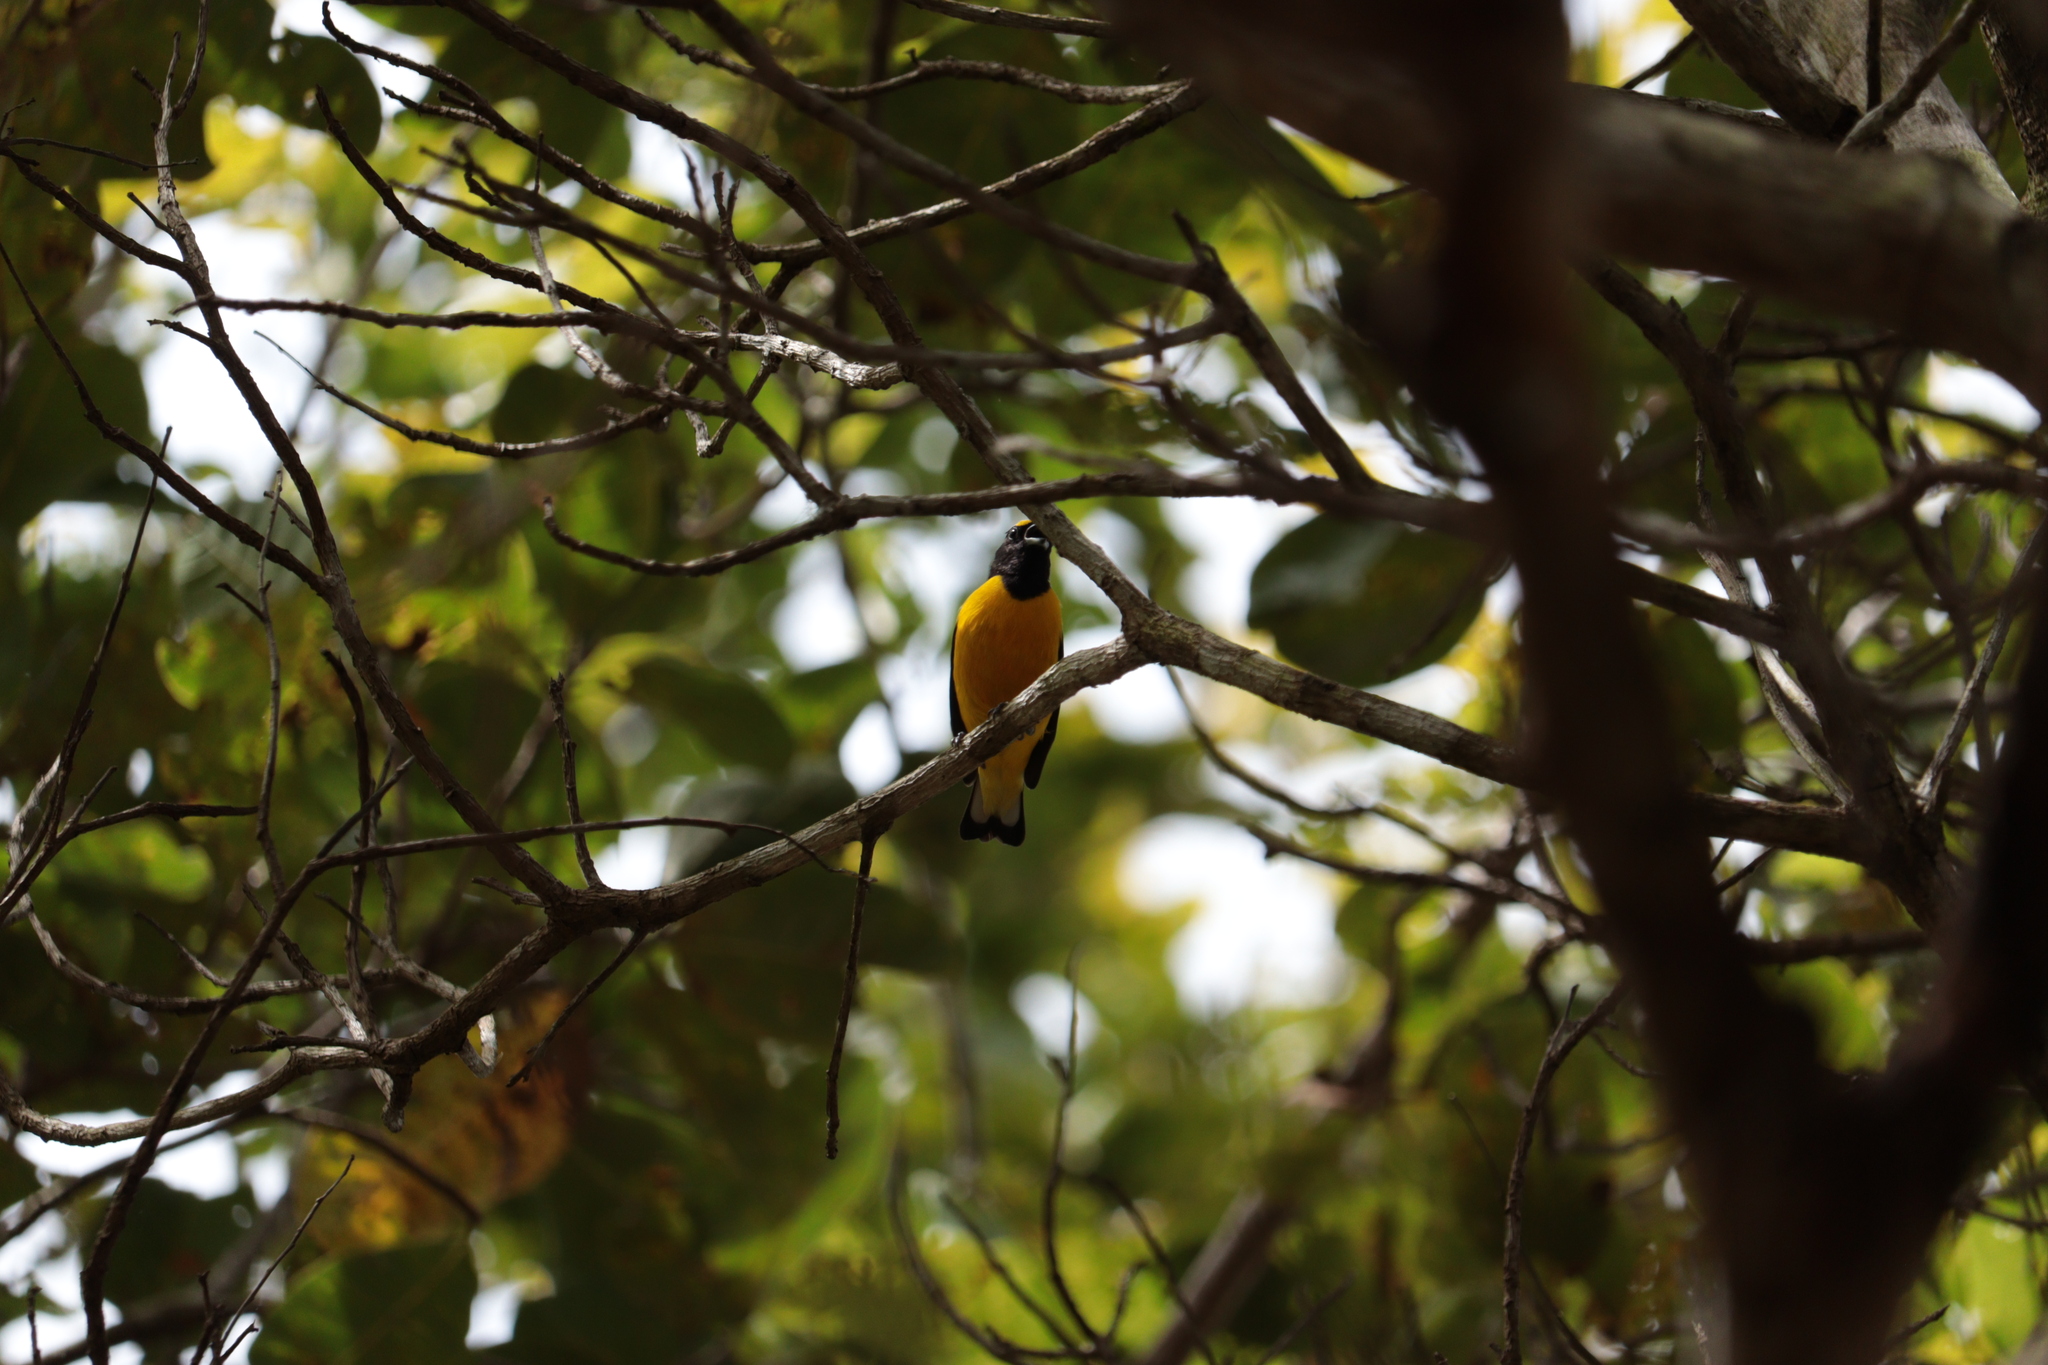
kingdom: Animalia
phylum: Chordata
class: Aves
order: Passeriformes
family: Fringillidae
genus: Euphonia
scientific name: Euphonia chlorotica
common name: Purple-throated euphonia
